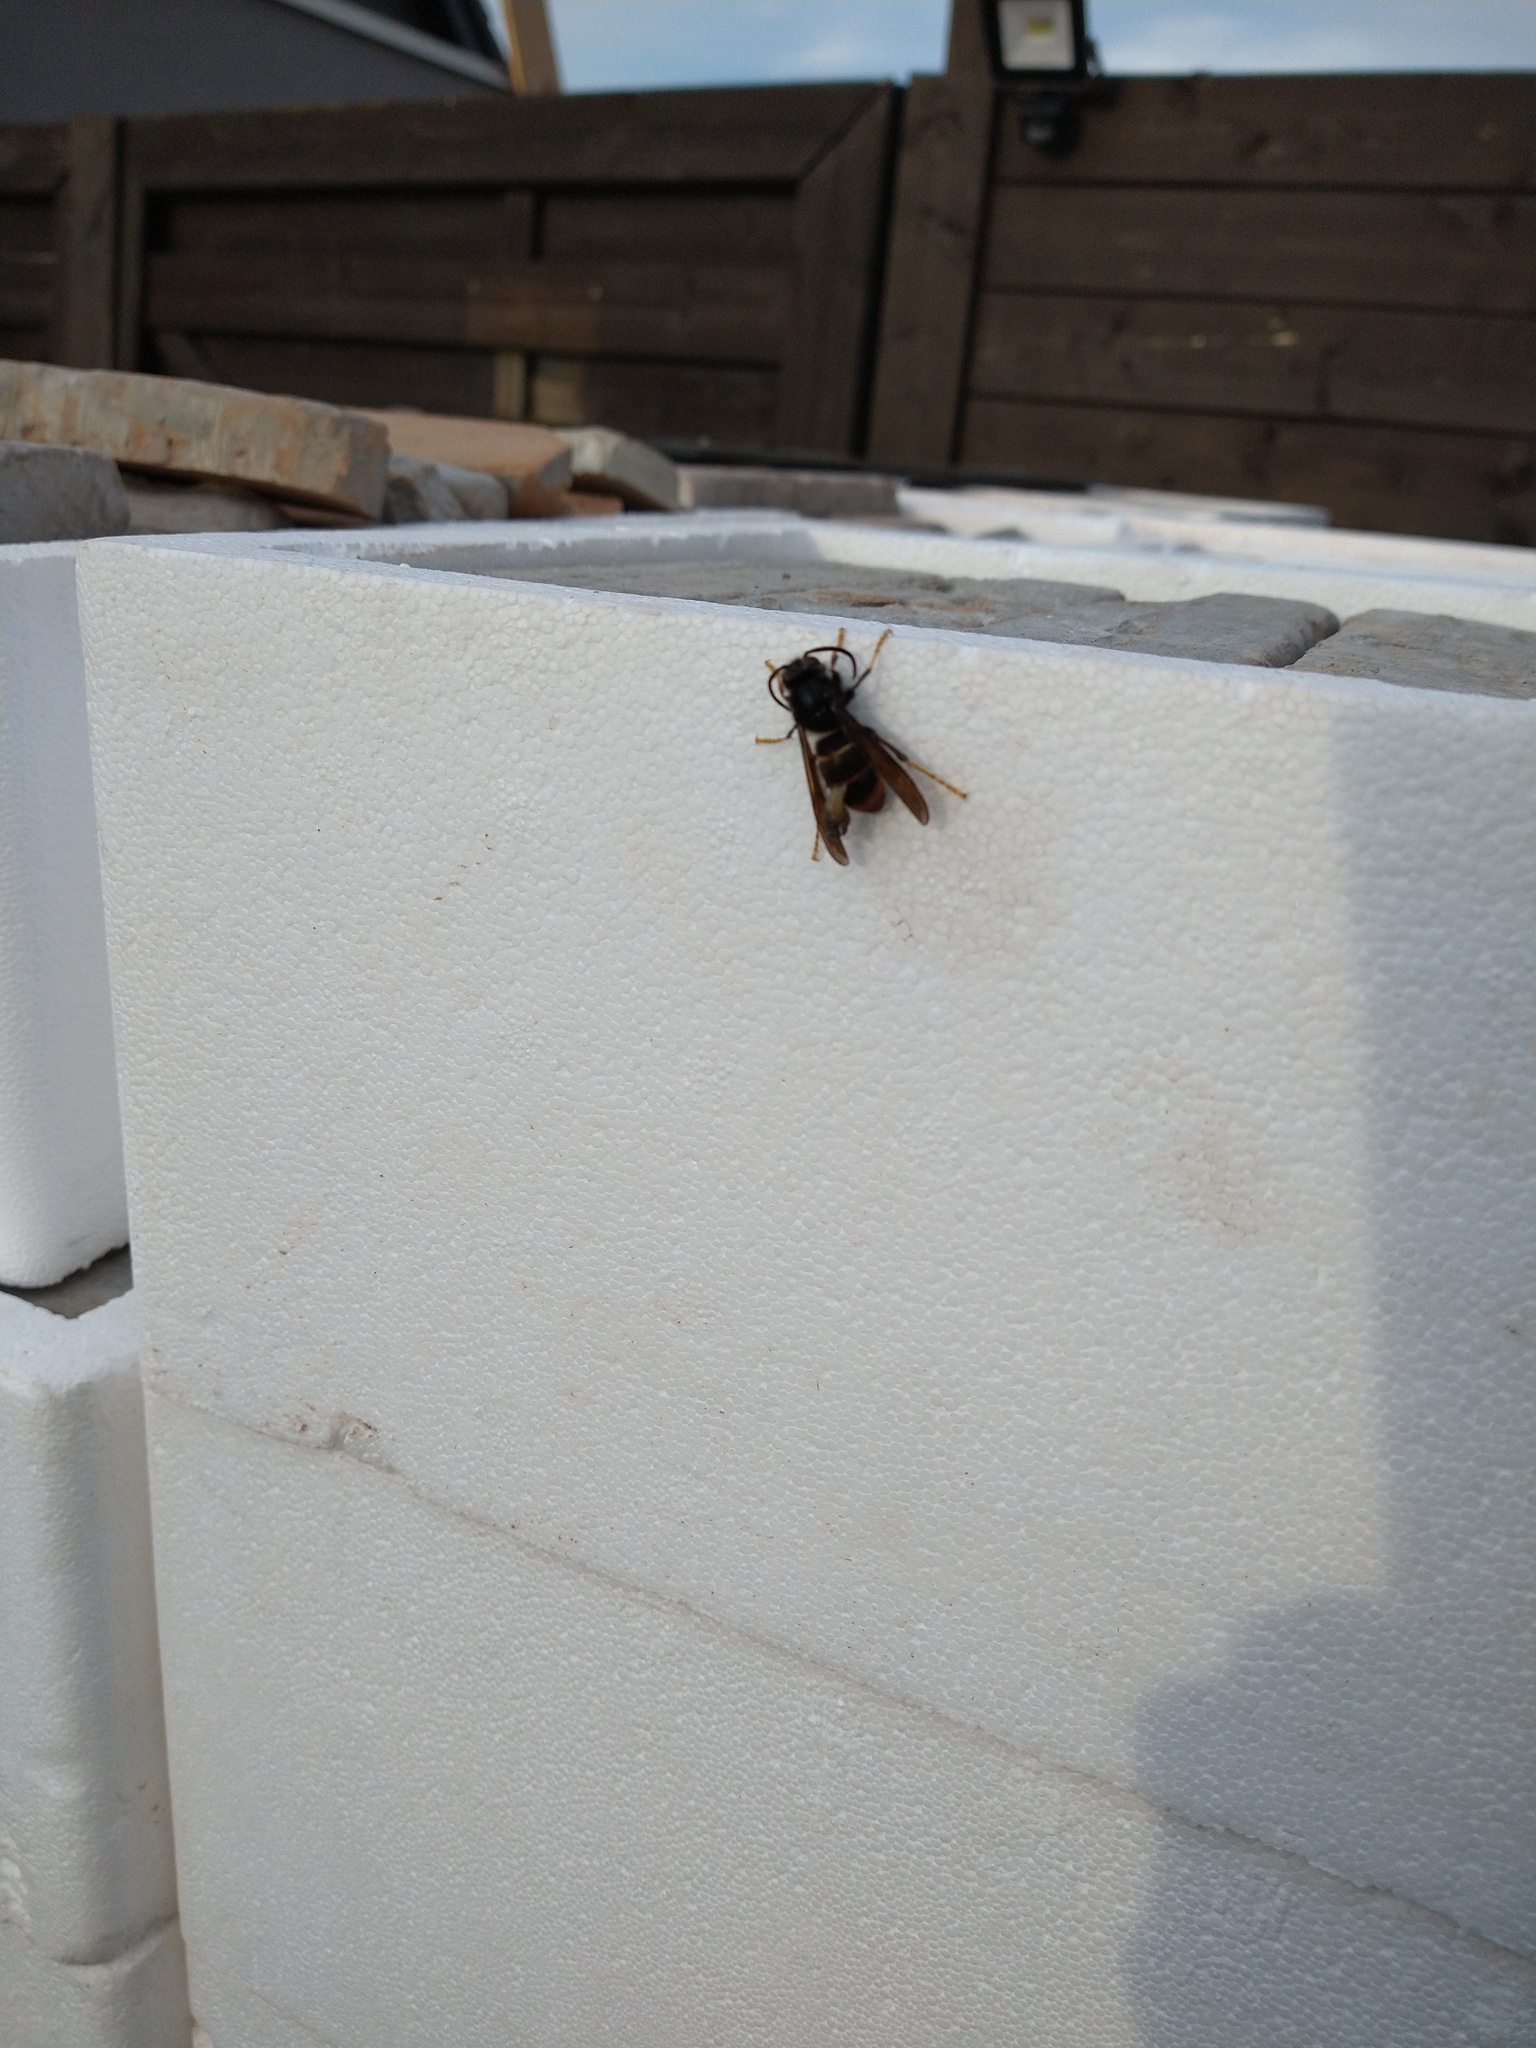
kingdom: Animalia
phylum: Arthropoda
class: Insecta
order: Hymenoptera
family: Vespidae
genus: Vespa
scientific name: Vespa velutina
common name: Asian hornet
